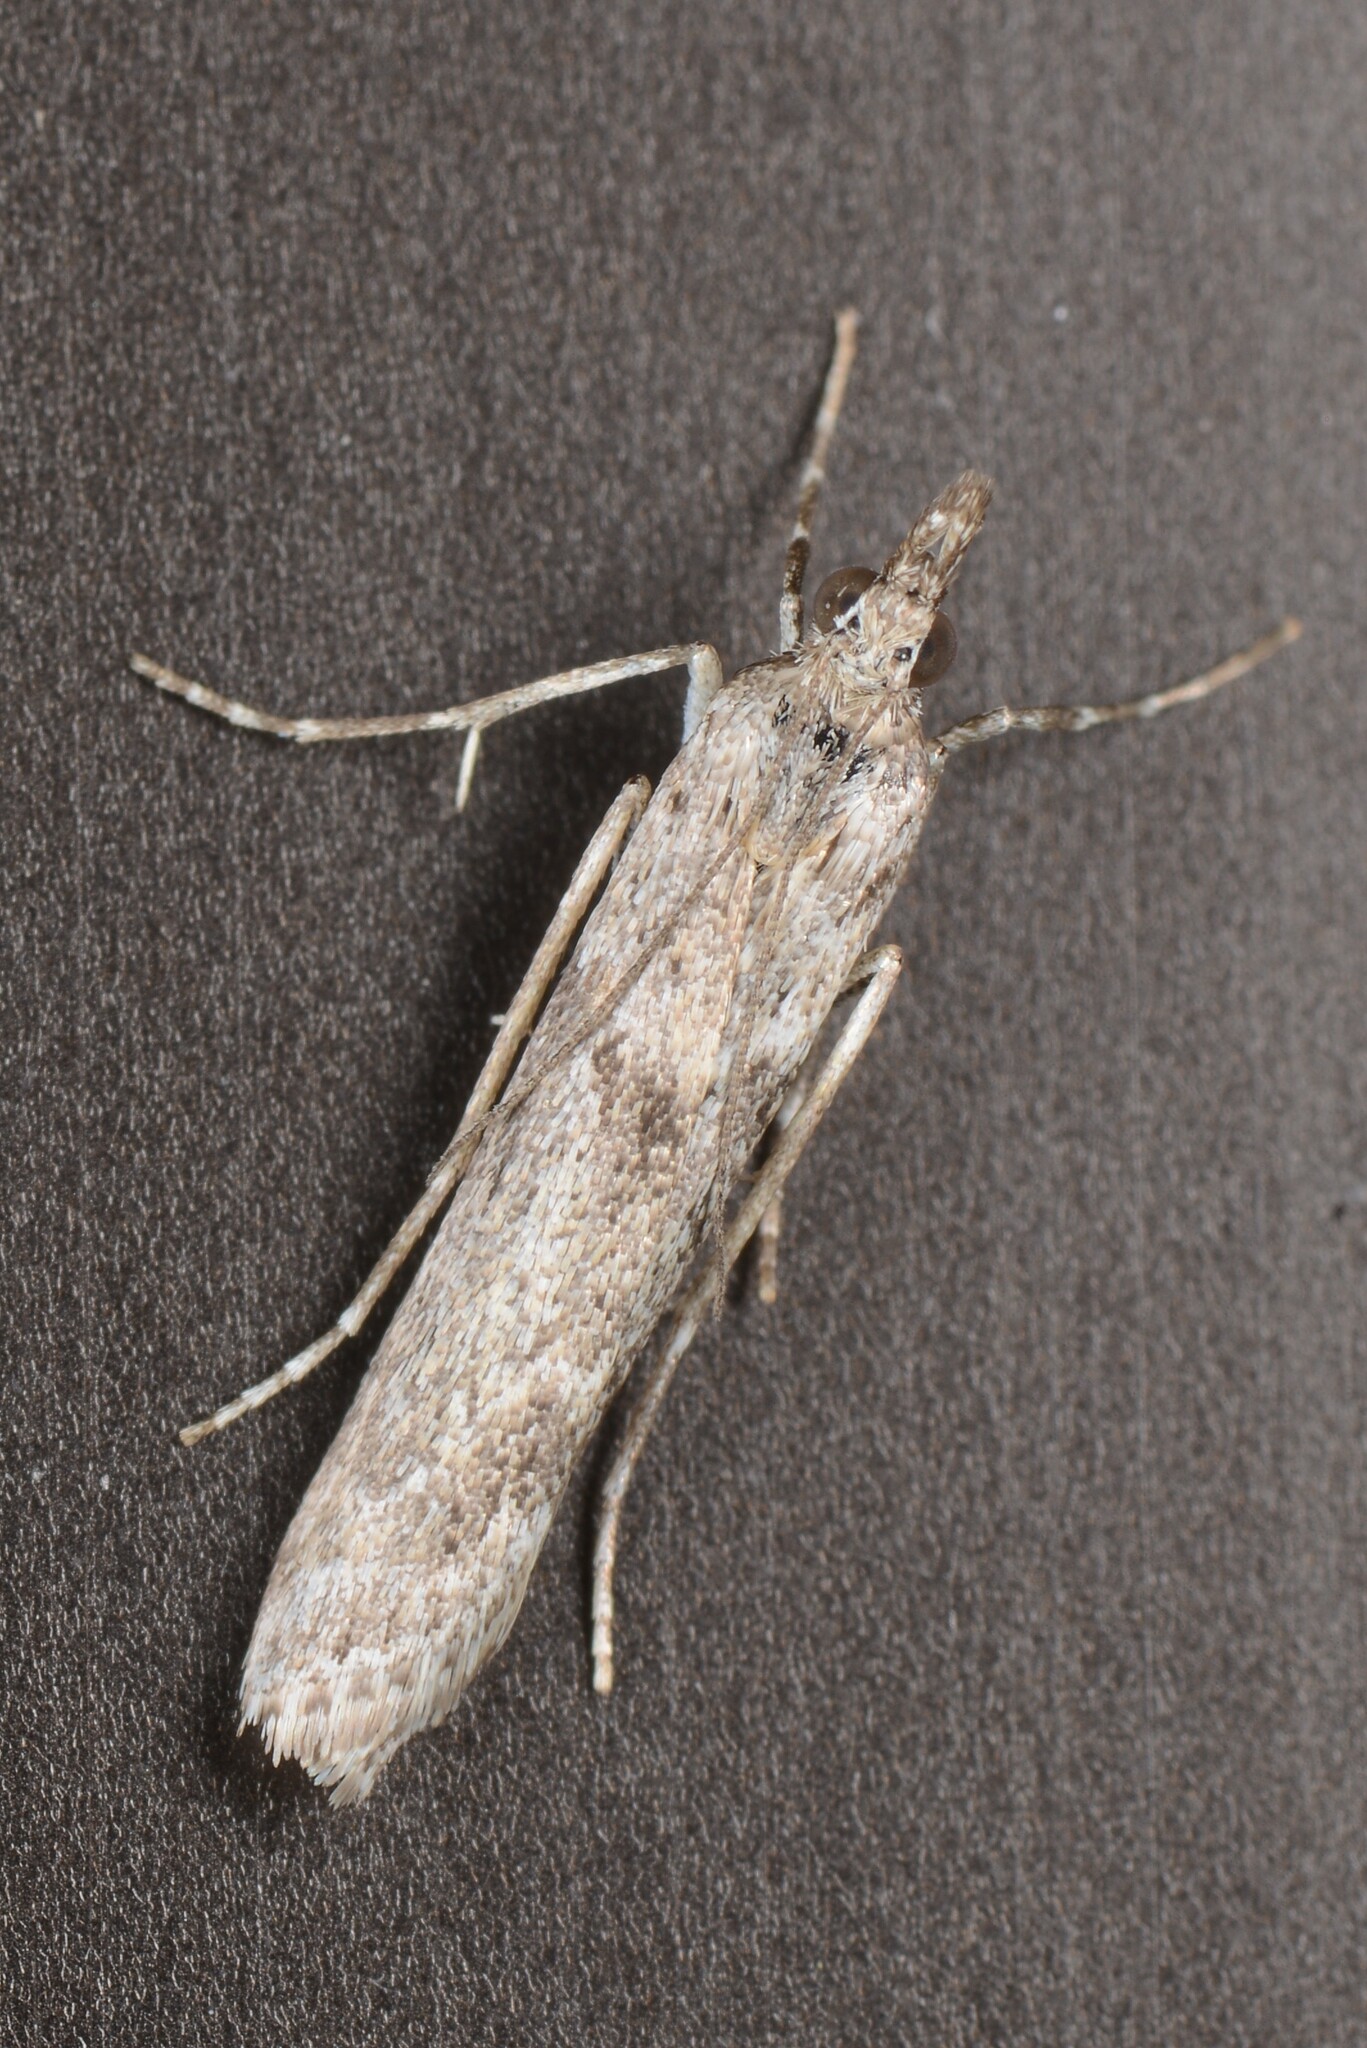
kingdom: Animalia
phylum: Arthropoda
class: Insecta
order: Lepidoptera
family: Crambidae
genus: Eudonia
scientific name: Eudonia leptalea
